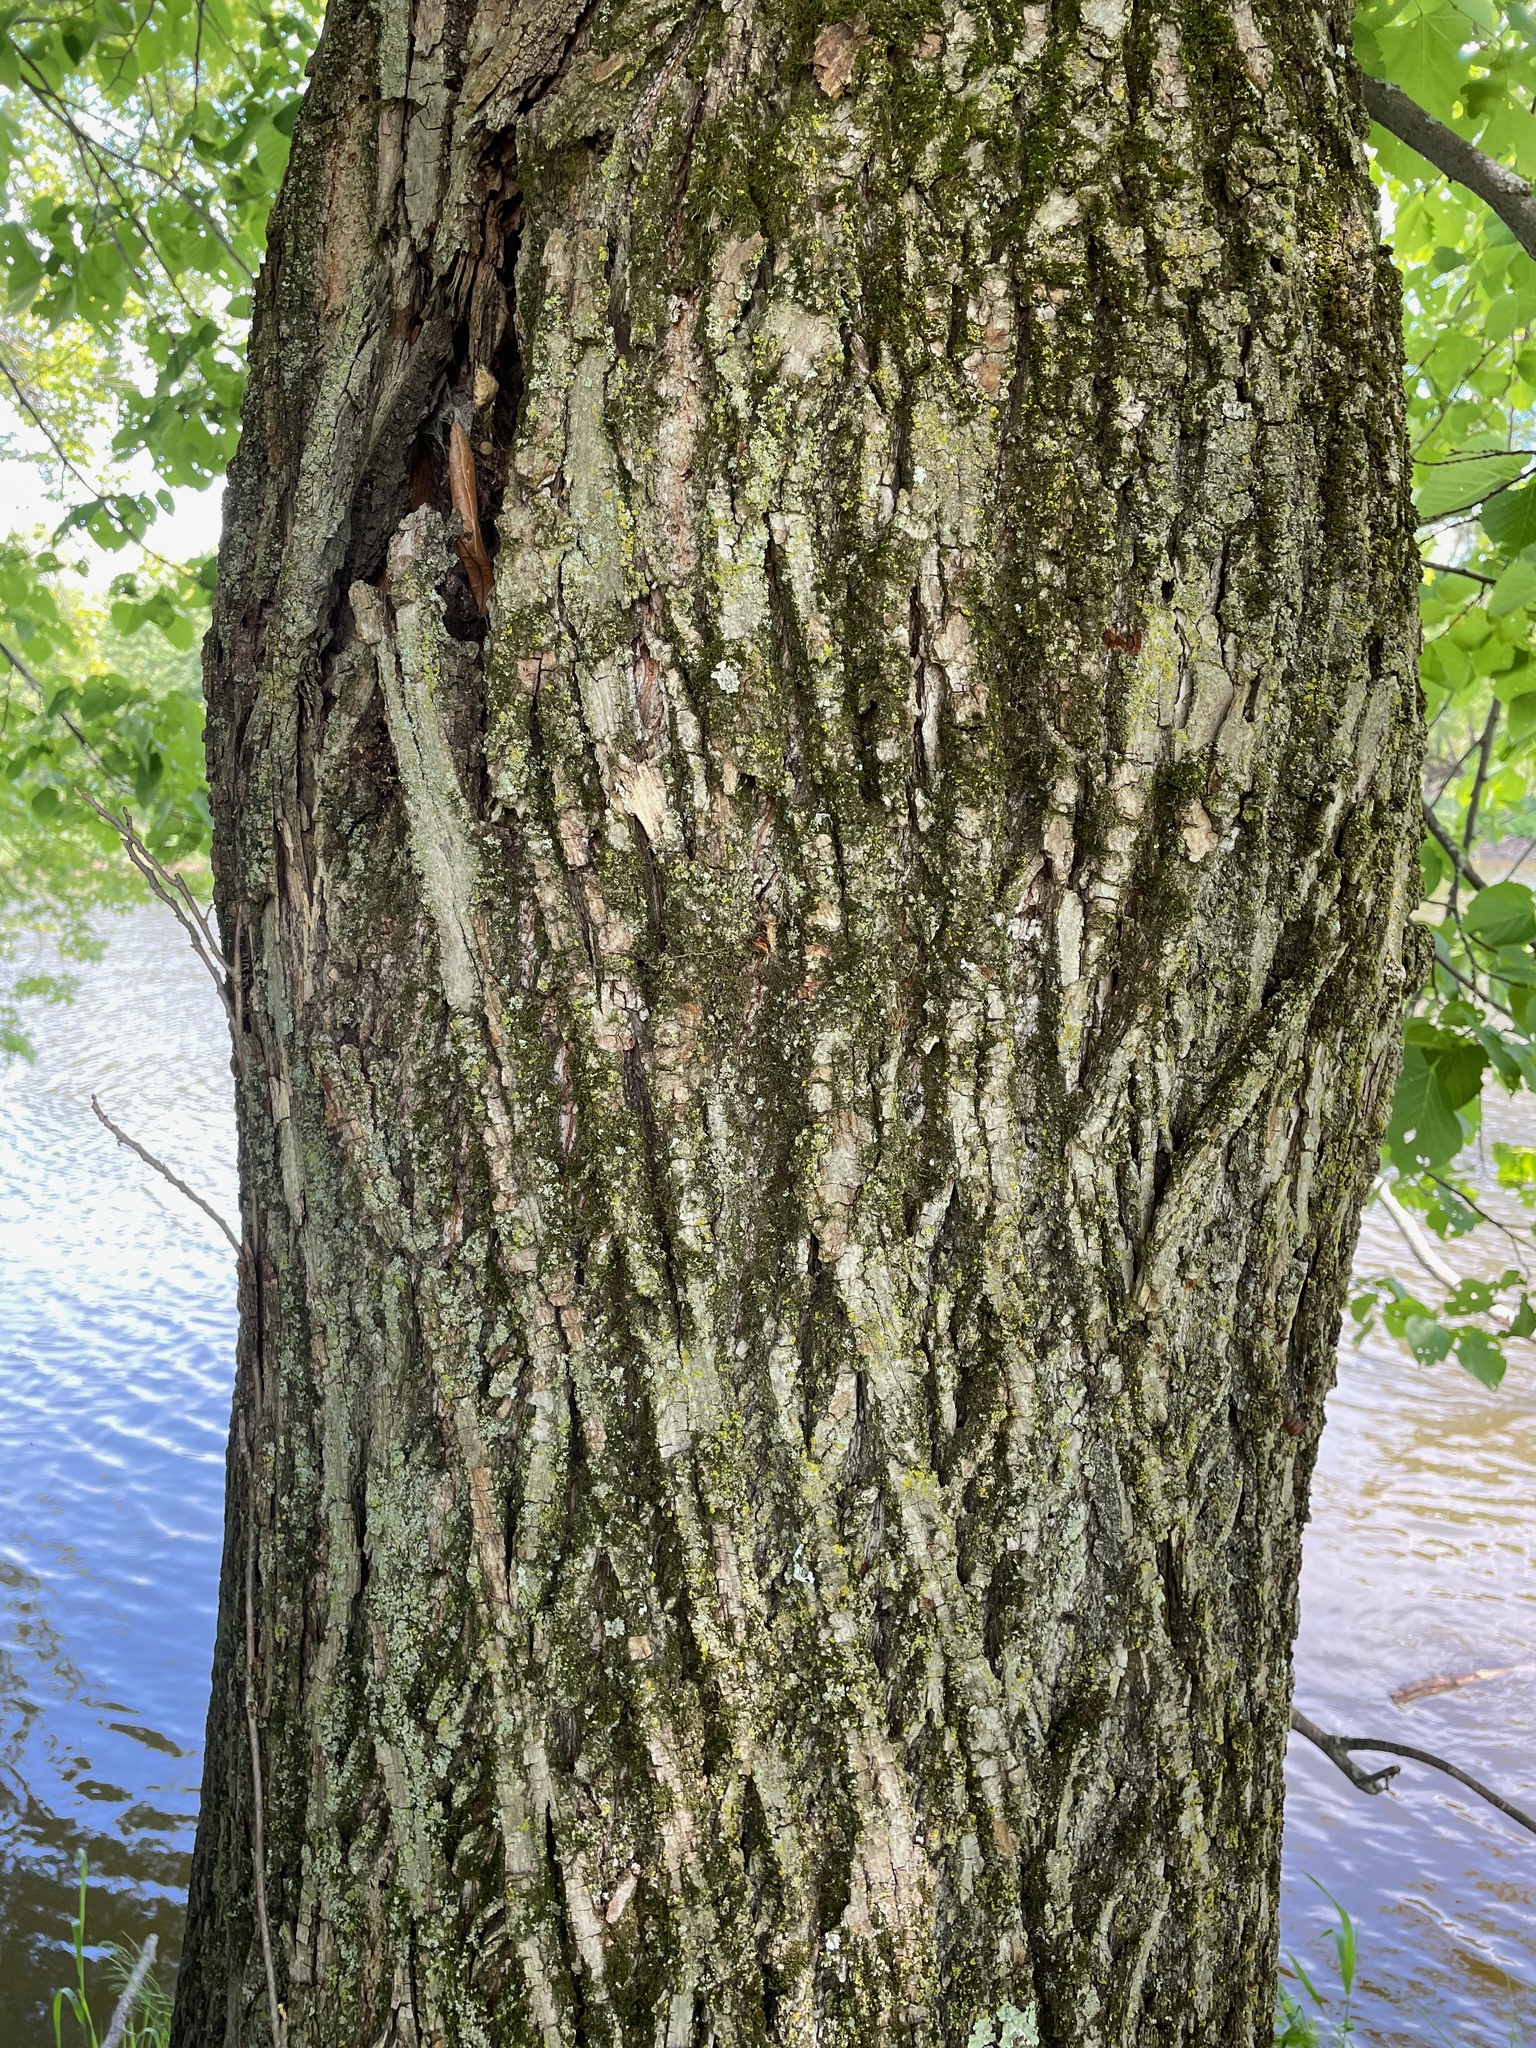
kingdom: Plantae
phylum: Tracheophyta
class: Magnoliopsida
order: Malvales
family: Malvaceae
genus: Tilia
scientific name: Tilia americana
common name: Basswood
